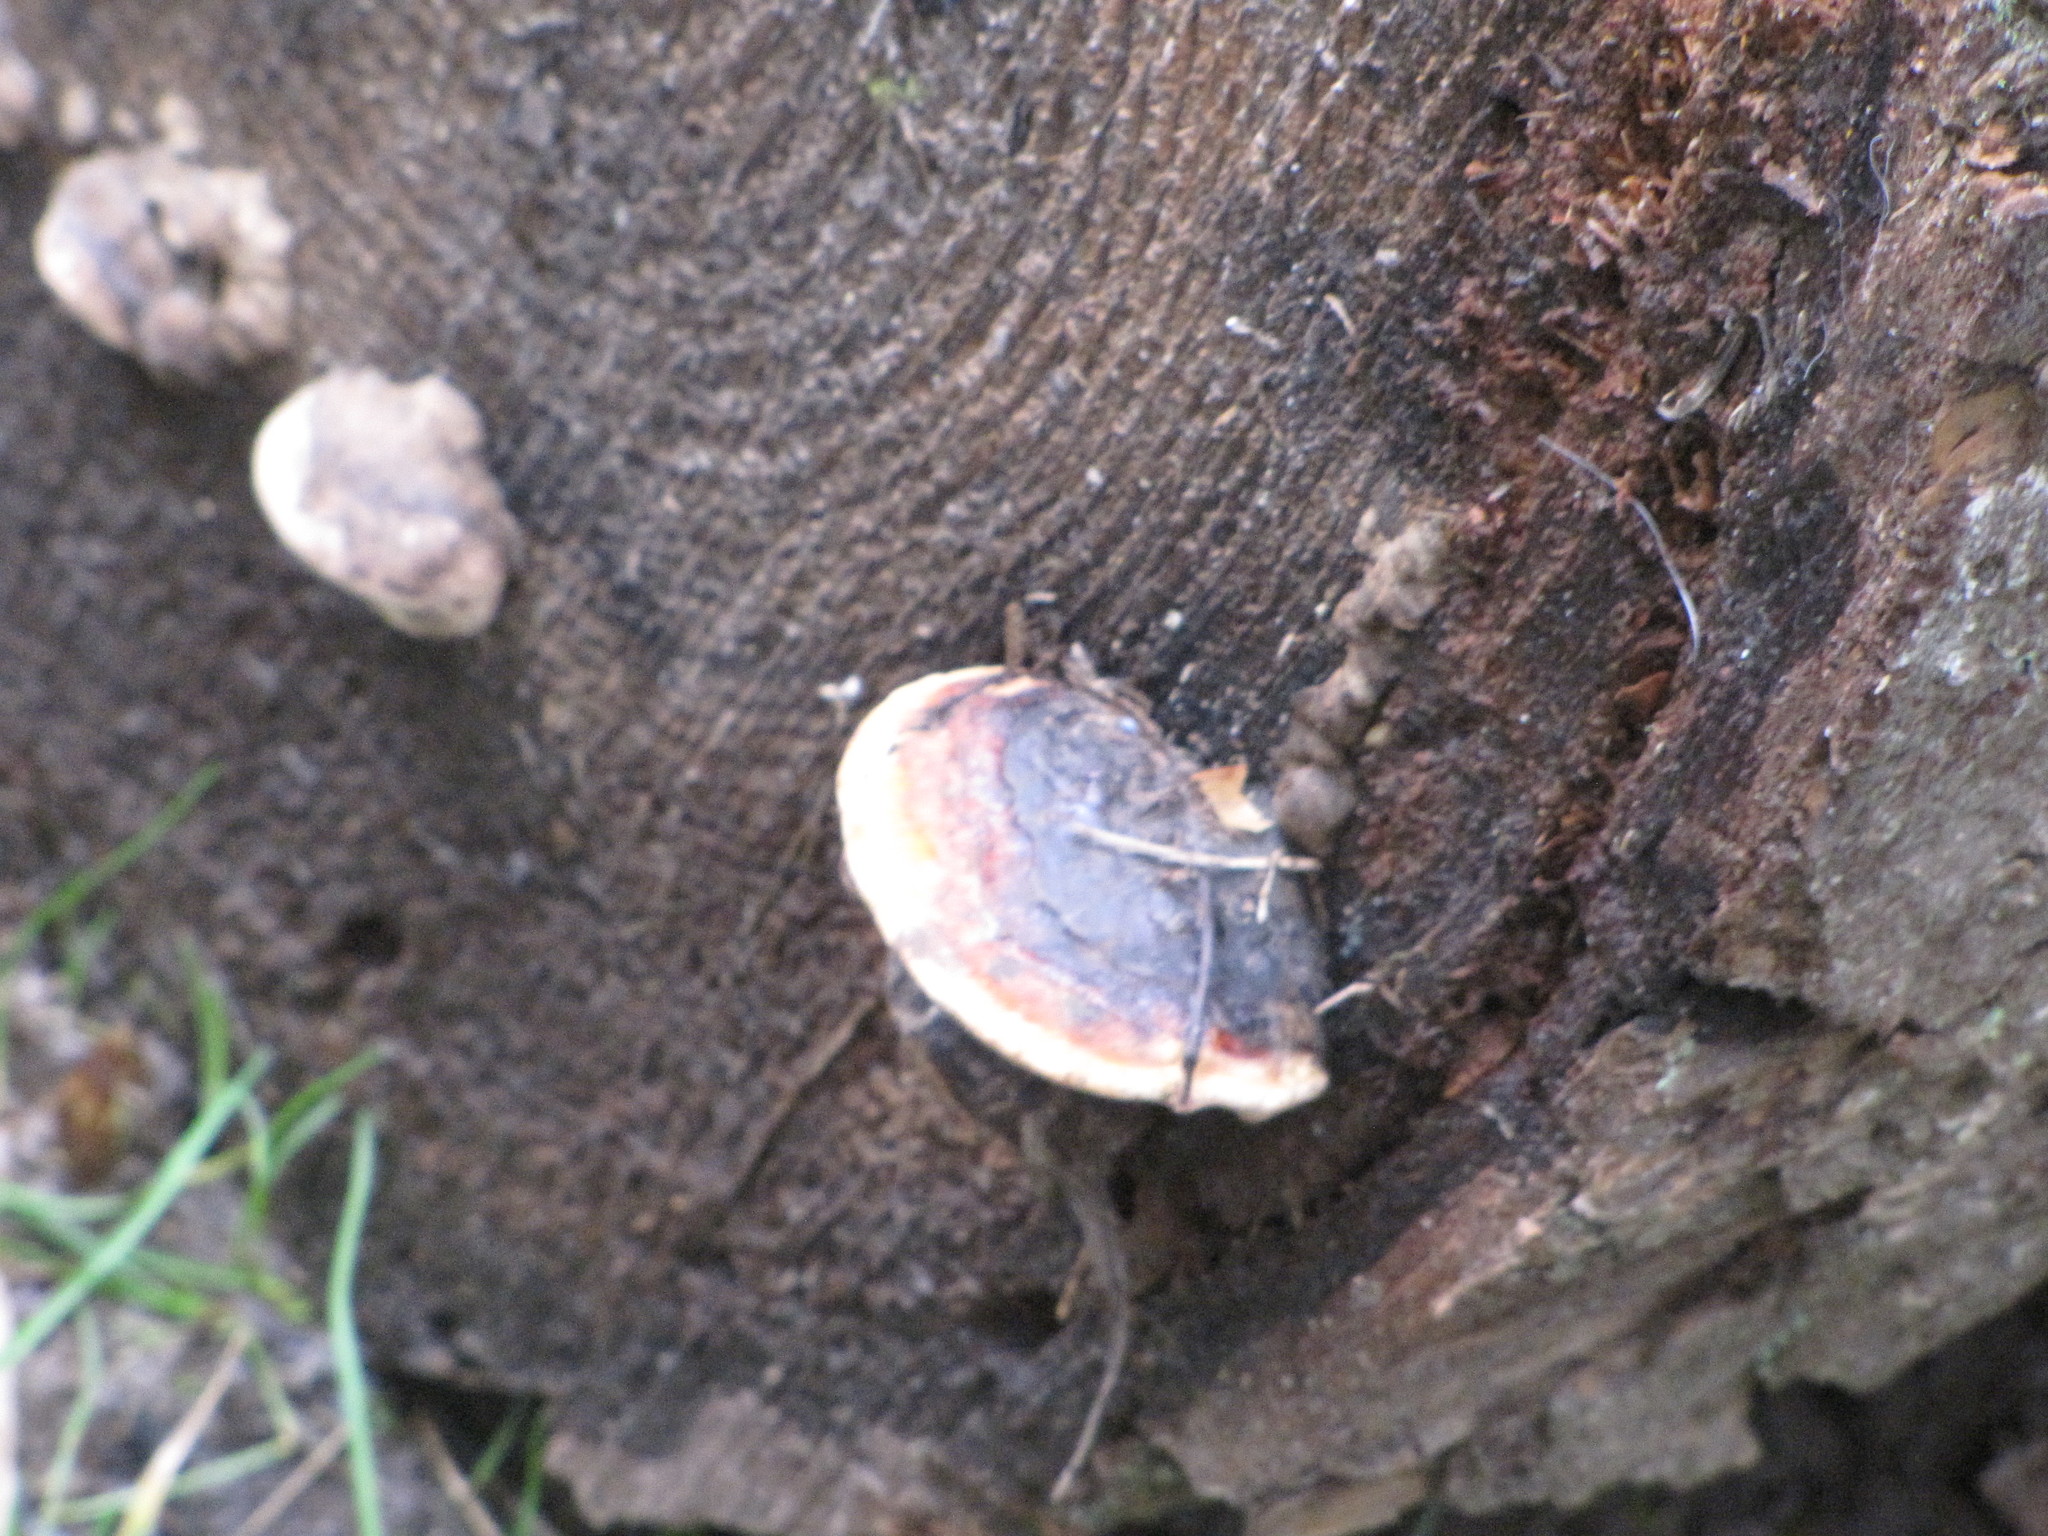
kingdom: Fungi
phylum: Basidiomycota
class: Agaricomycetes
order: Polyporales
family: Fomitopsidaceae
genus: Fomitopsis
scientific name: Fomitopsis mounceae
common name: Northern red belt
